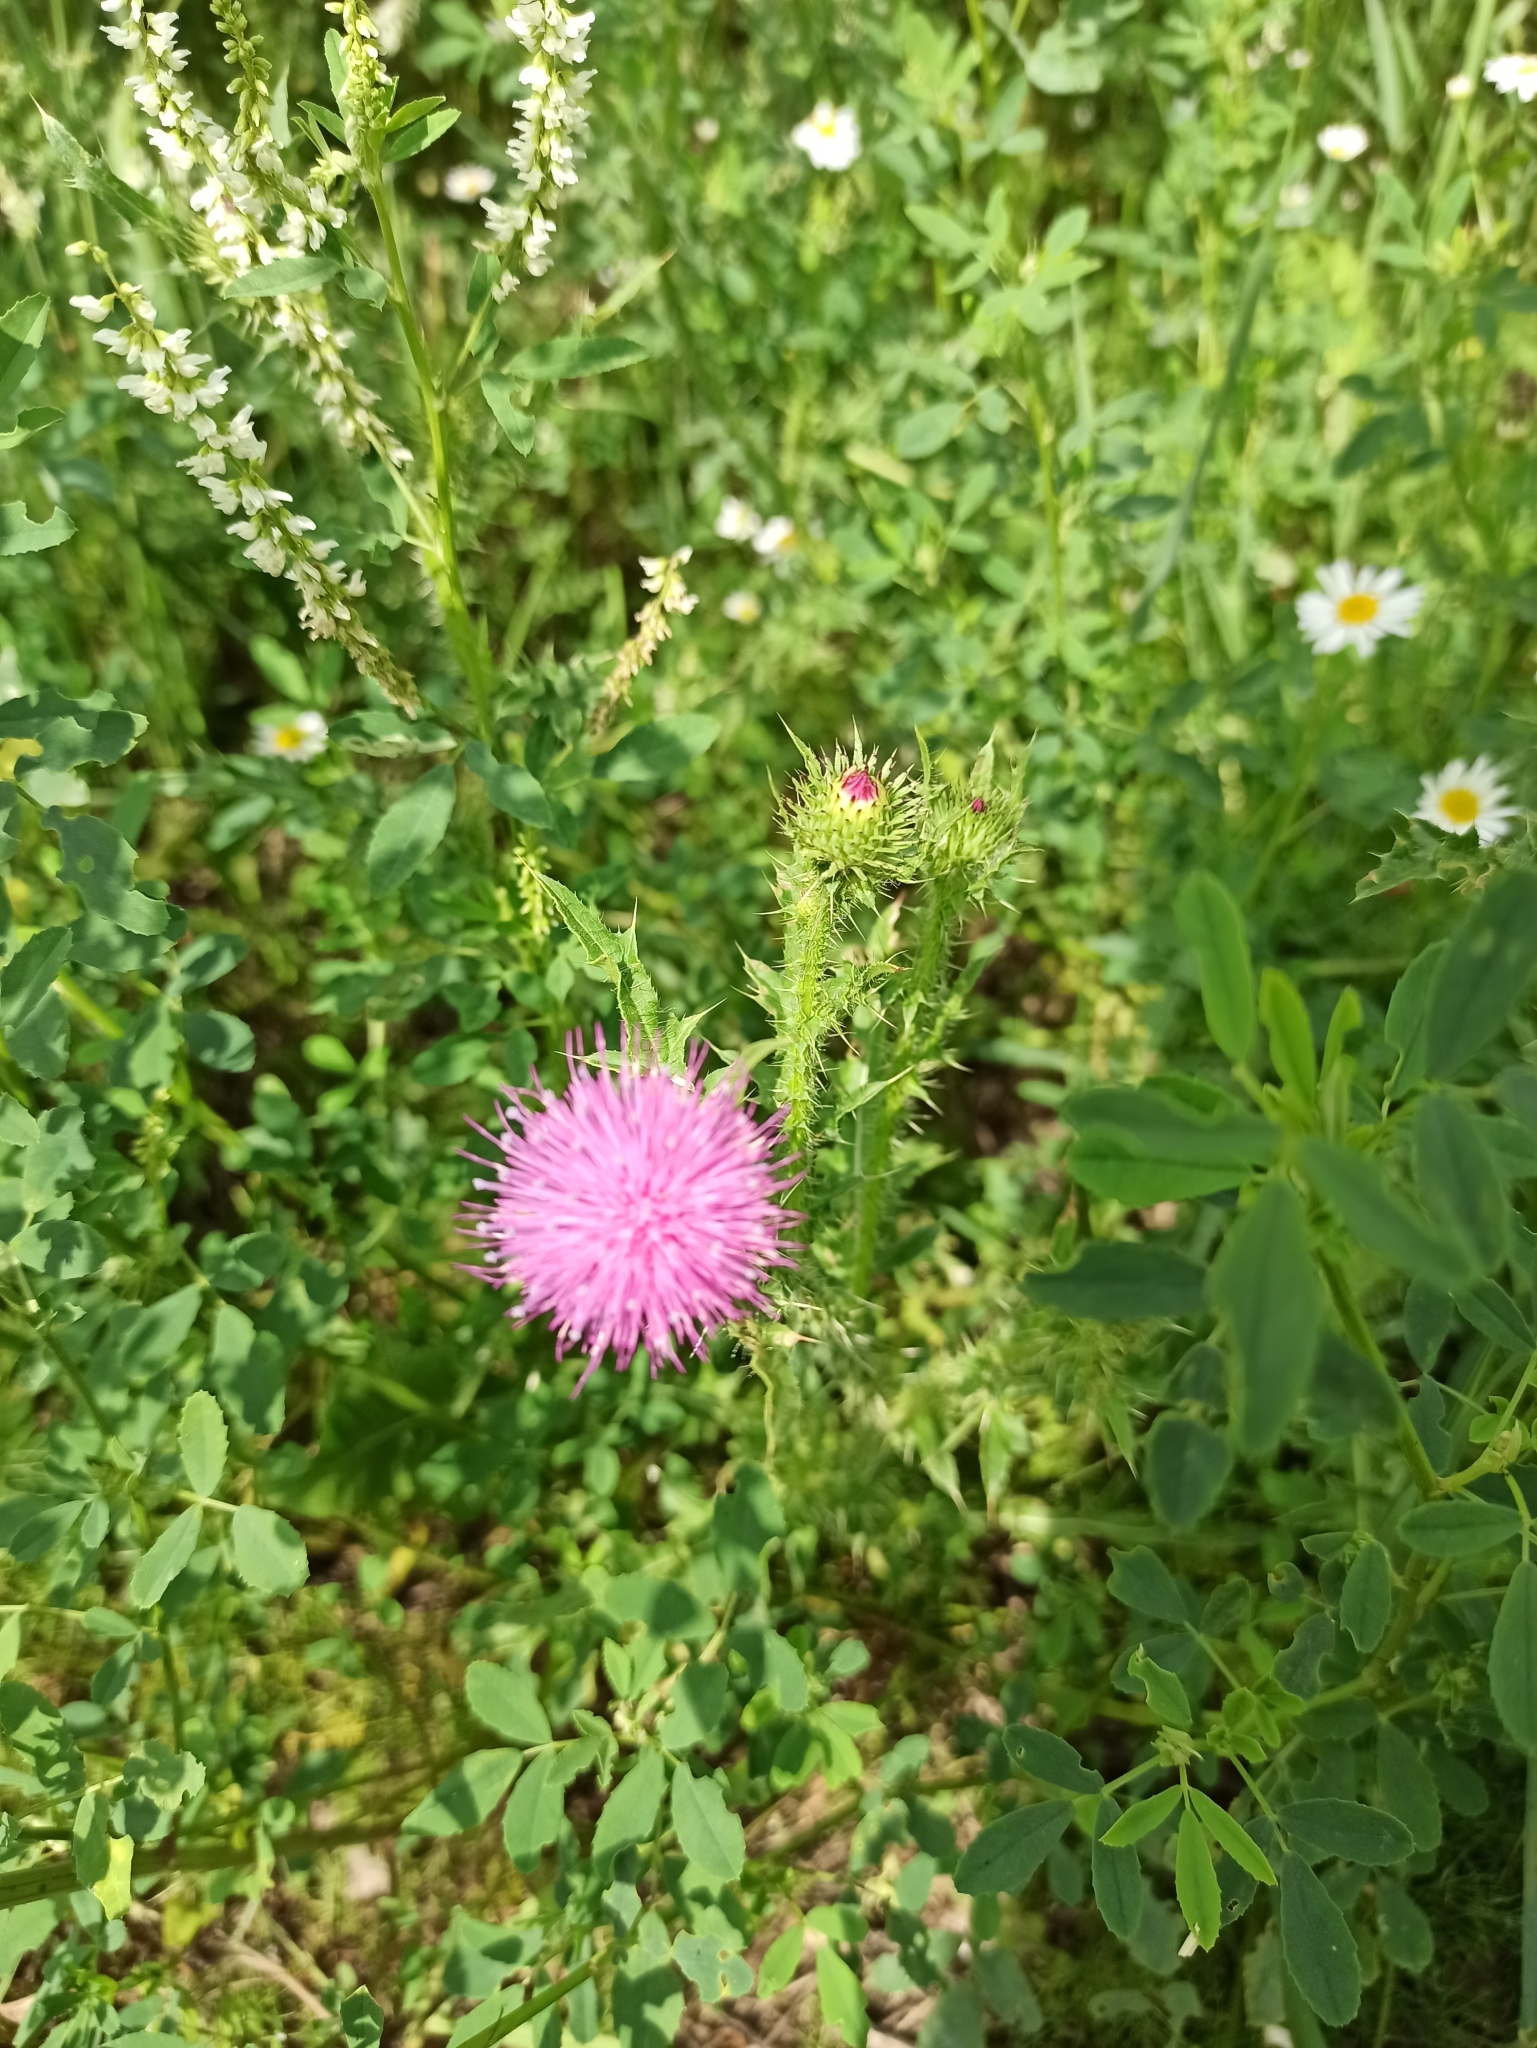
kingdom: Plantae
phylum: Tracheophyta
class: Magnoliopsida
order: Asterales
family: Asteraceae
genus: Carduus
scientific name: Carduus acanthoides
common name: Plumeless thistle
